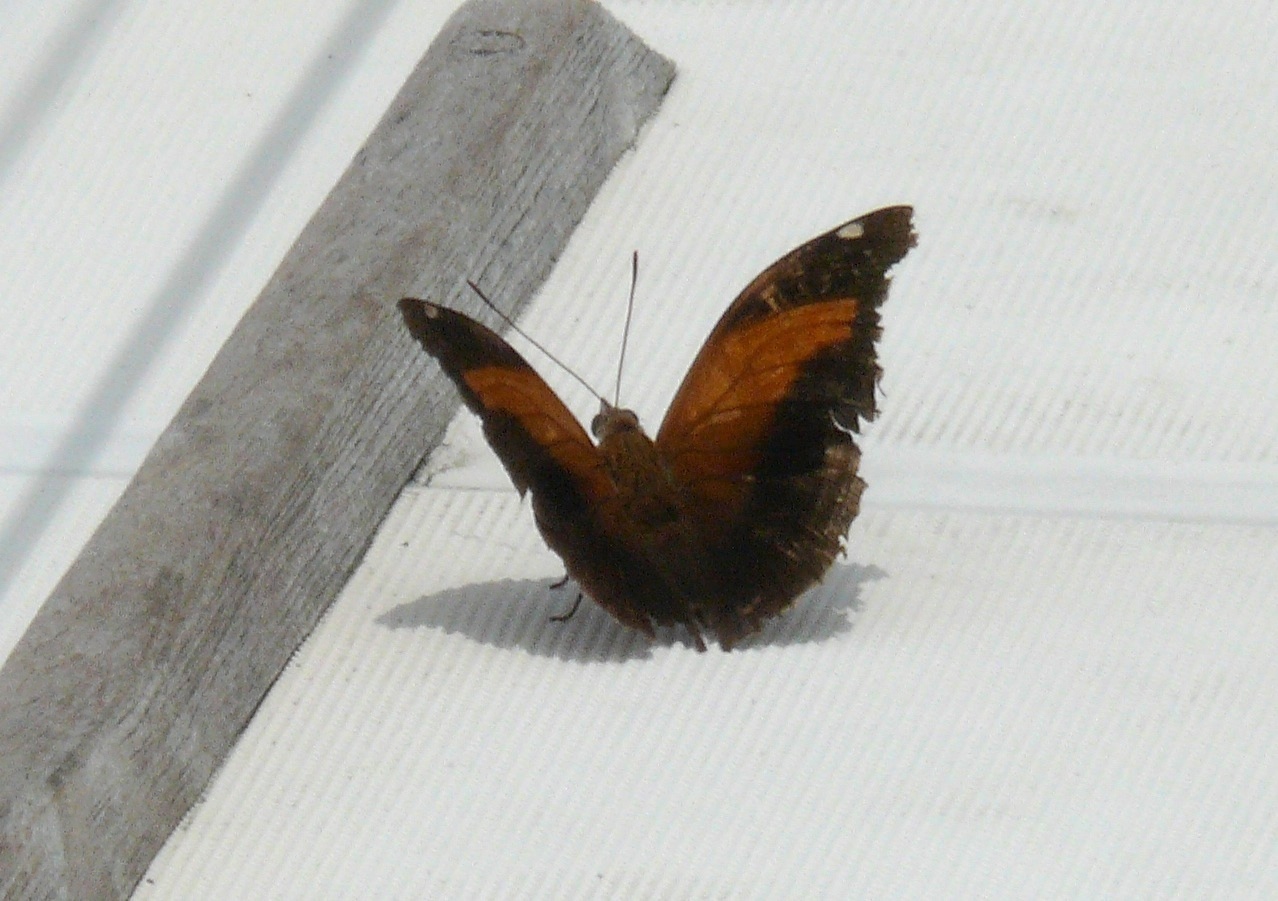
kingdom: Animalia
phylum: Arthropoda
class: Insecta
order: Lepidoptera
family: Nymphalidae
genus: Historis
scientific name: Historis odius
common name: Orion cecropian
